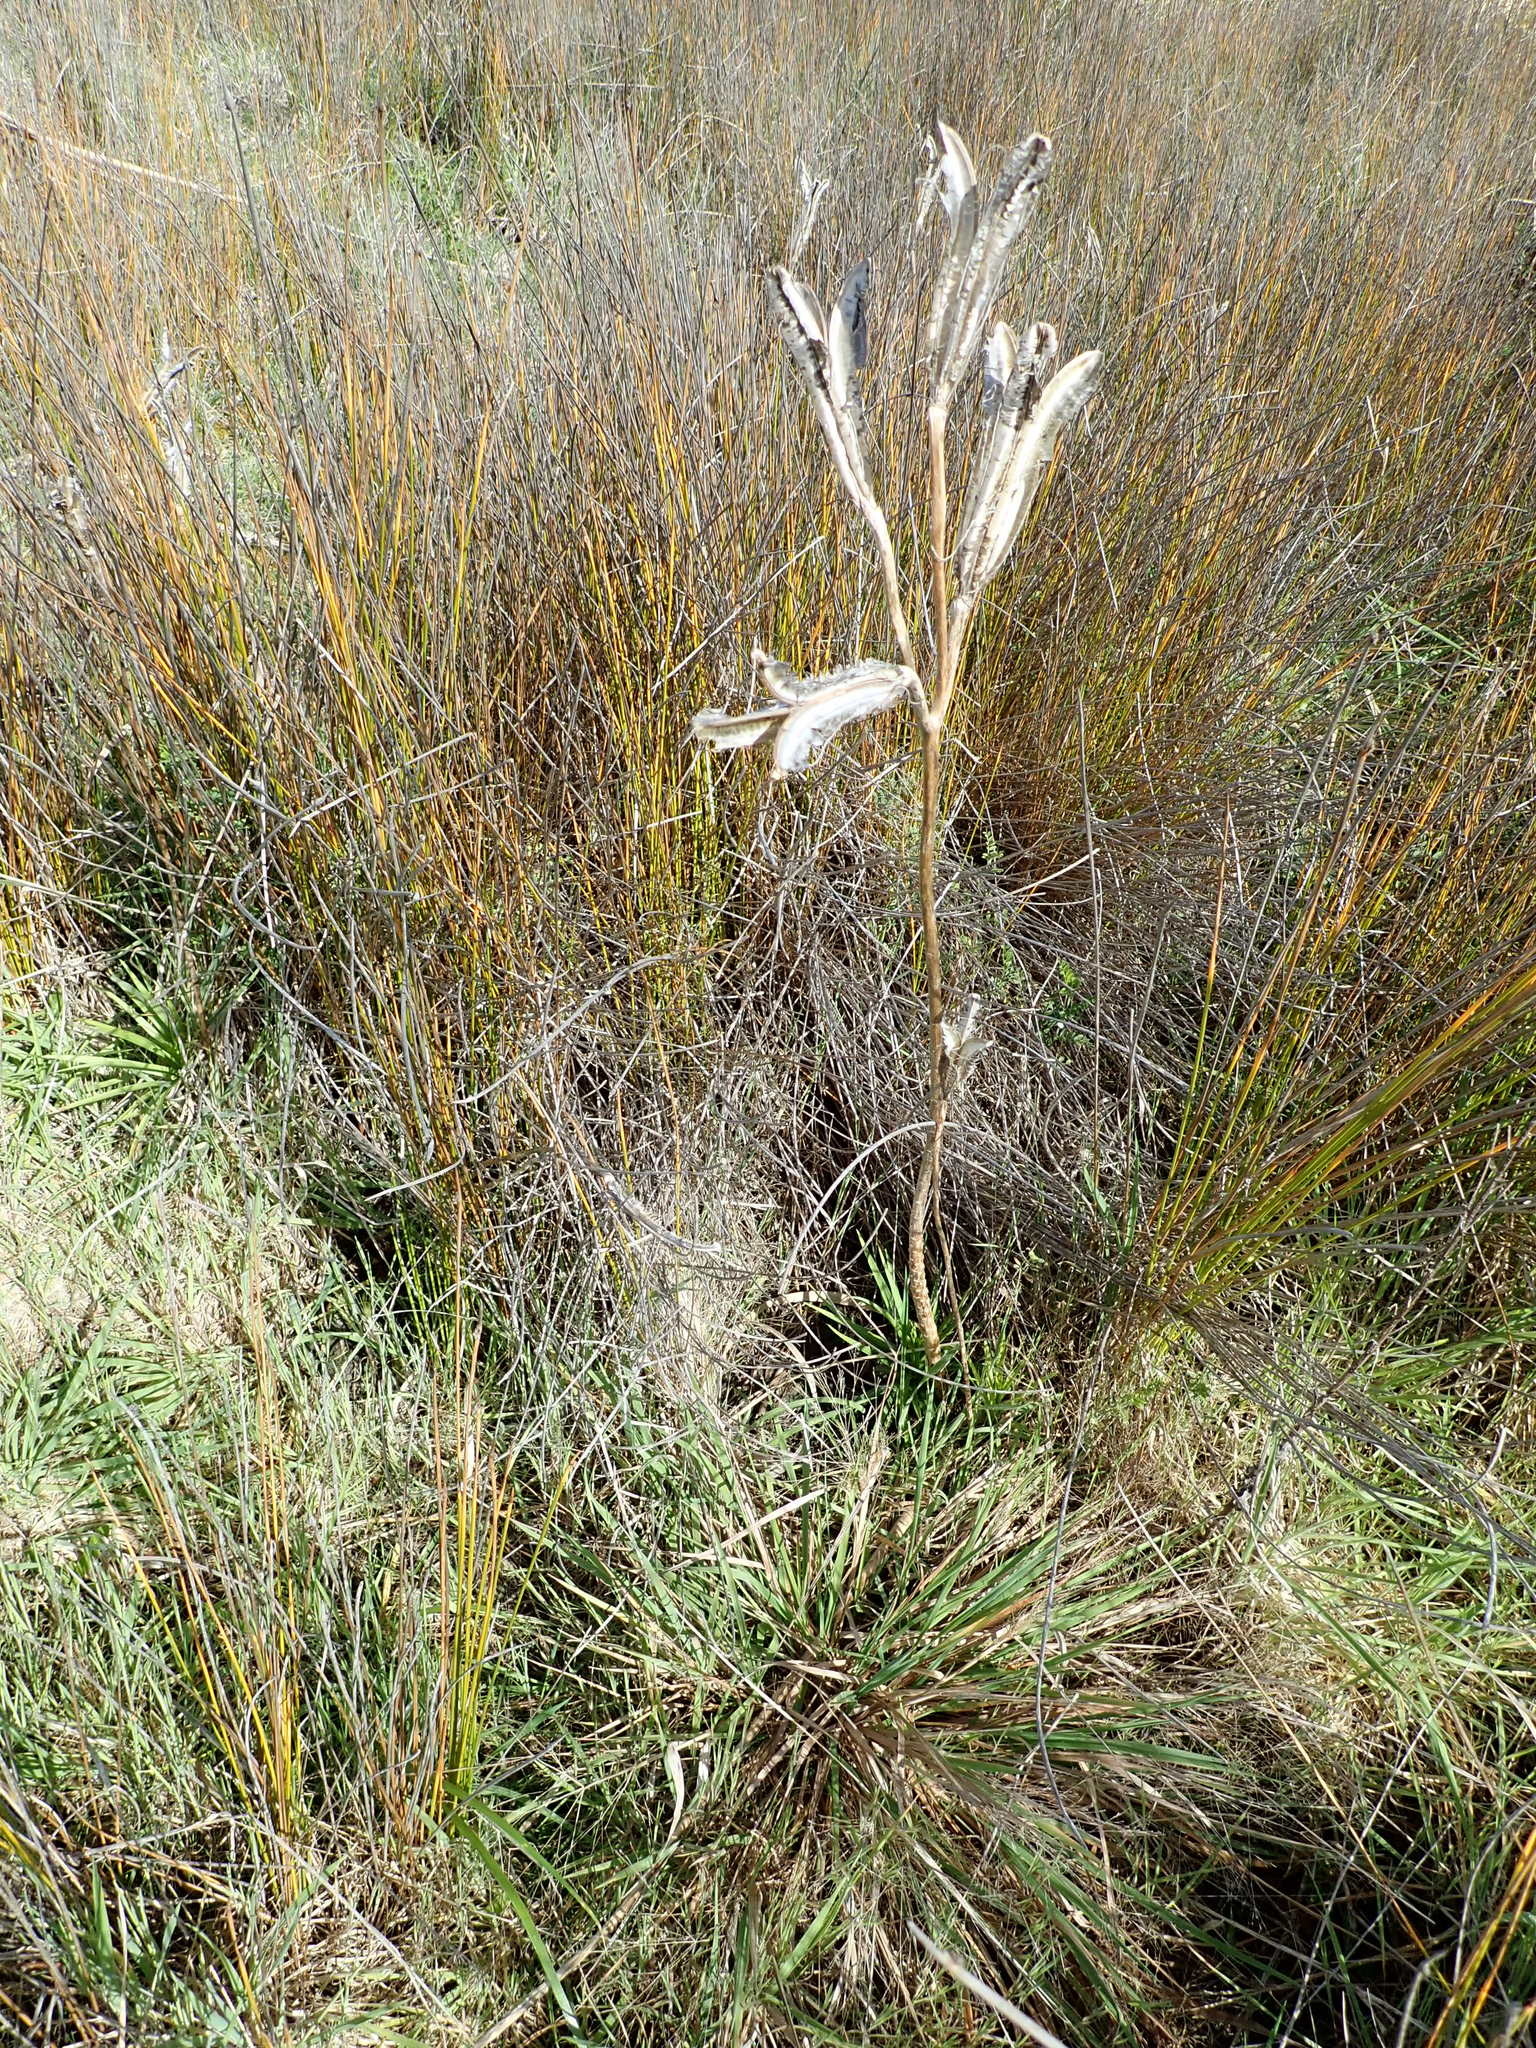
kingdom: Plantae
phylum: Tracheophyta
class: Liliopsida
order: Liliales
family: Liliaceae
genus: Lilium
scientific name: Lilium formosanum
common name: Formosa lily
